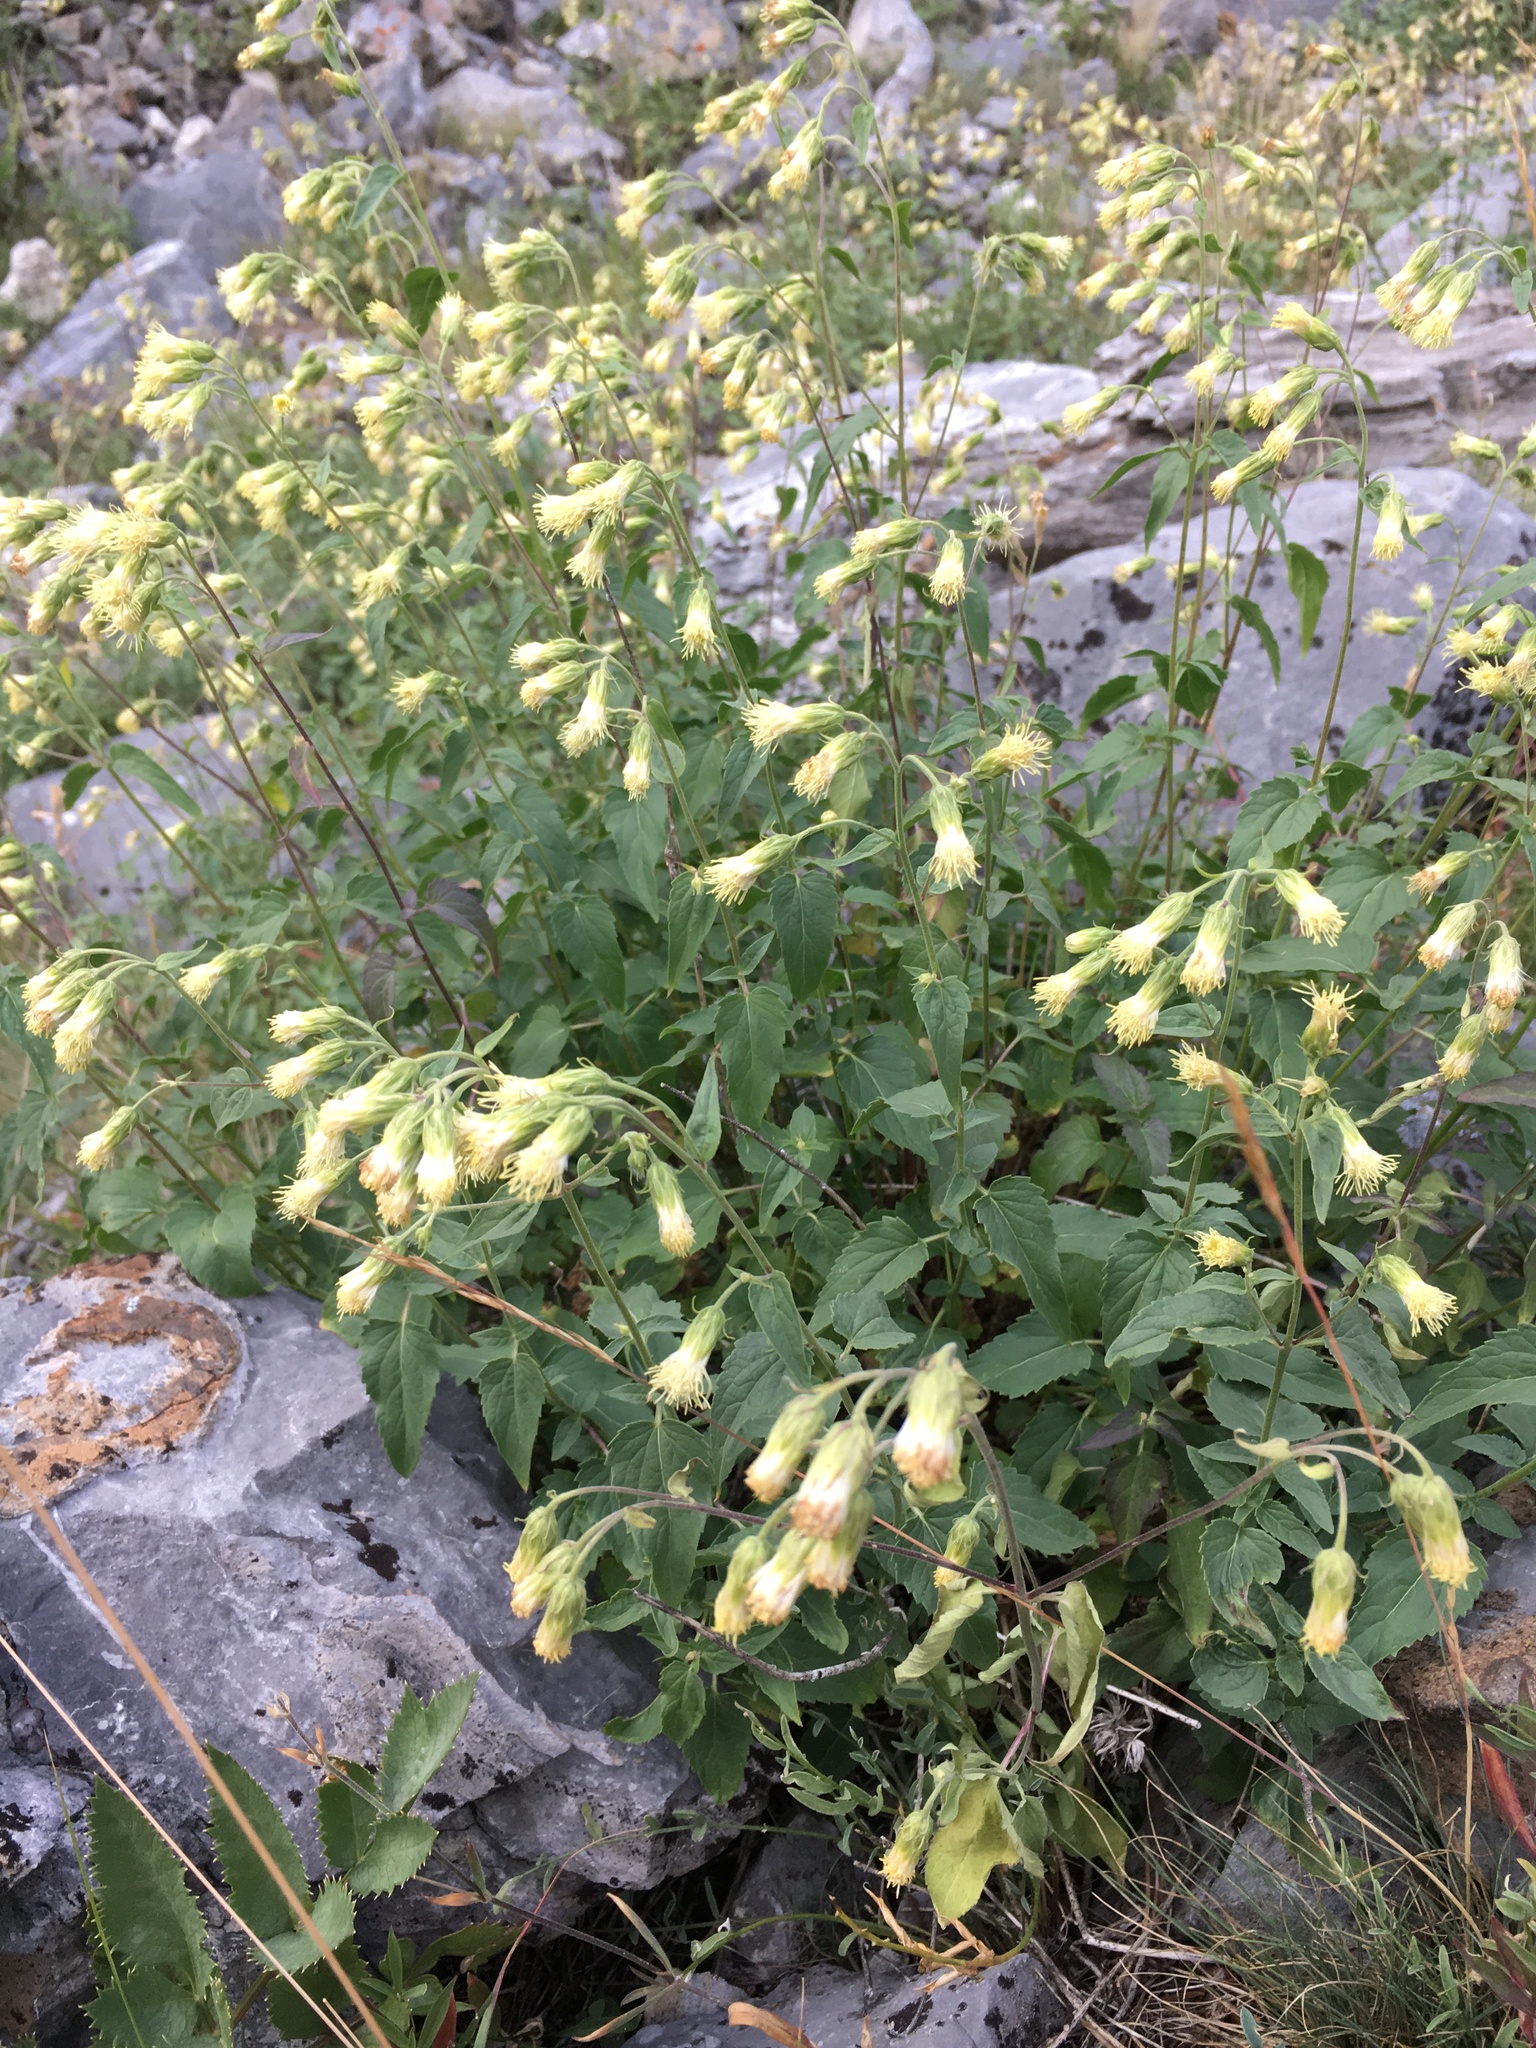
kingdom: Plantae
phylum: Tracheophyta
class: Magnoliopsida
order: Asterales
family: Asteraceae
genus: Brickellia
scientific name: Brickellia grandiflora
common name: Large-flowered brickellia
